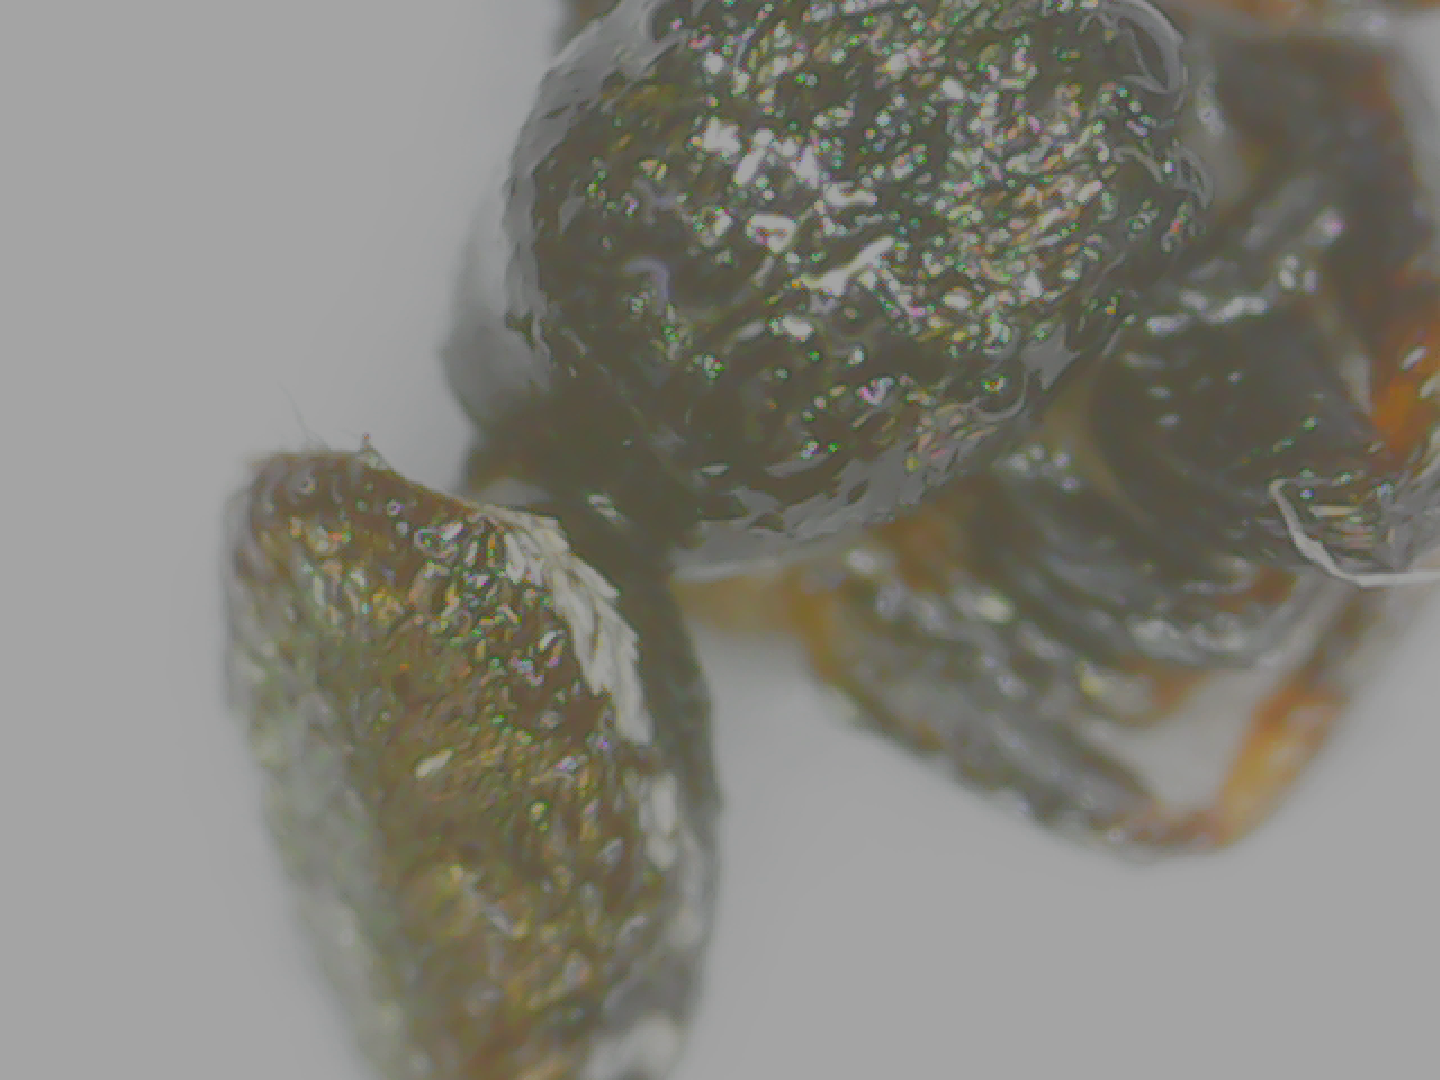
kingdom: Animalia
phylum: Arthropoda
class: Arachnida
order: Araneae
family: Salticidae
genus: Sassacus
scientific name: Sassacus vitis
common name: Jumping spiders
